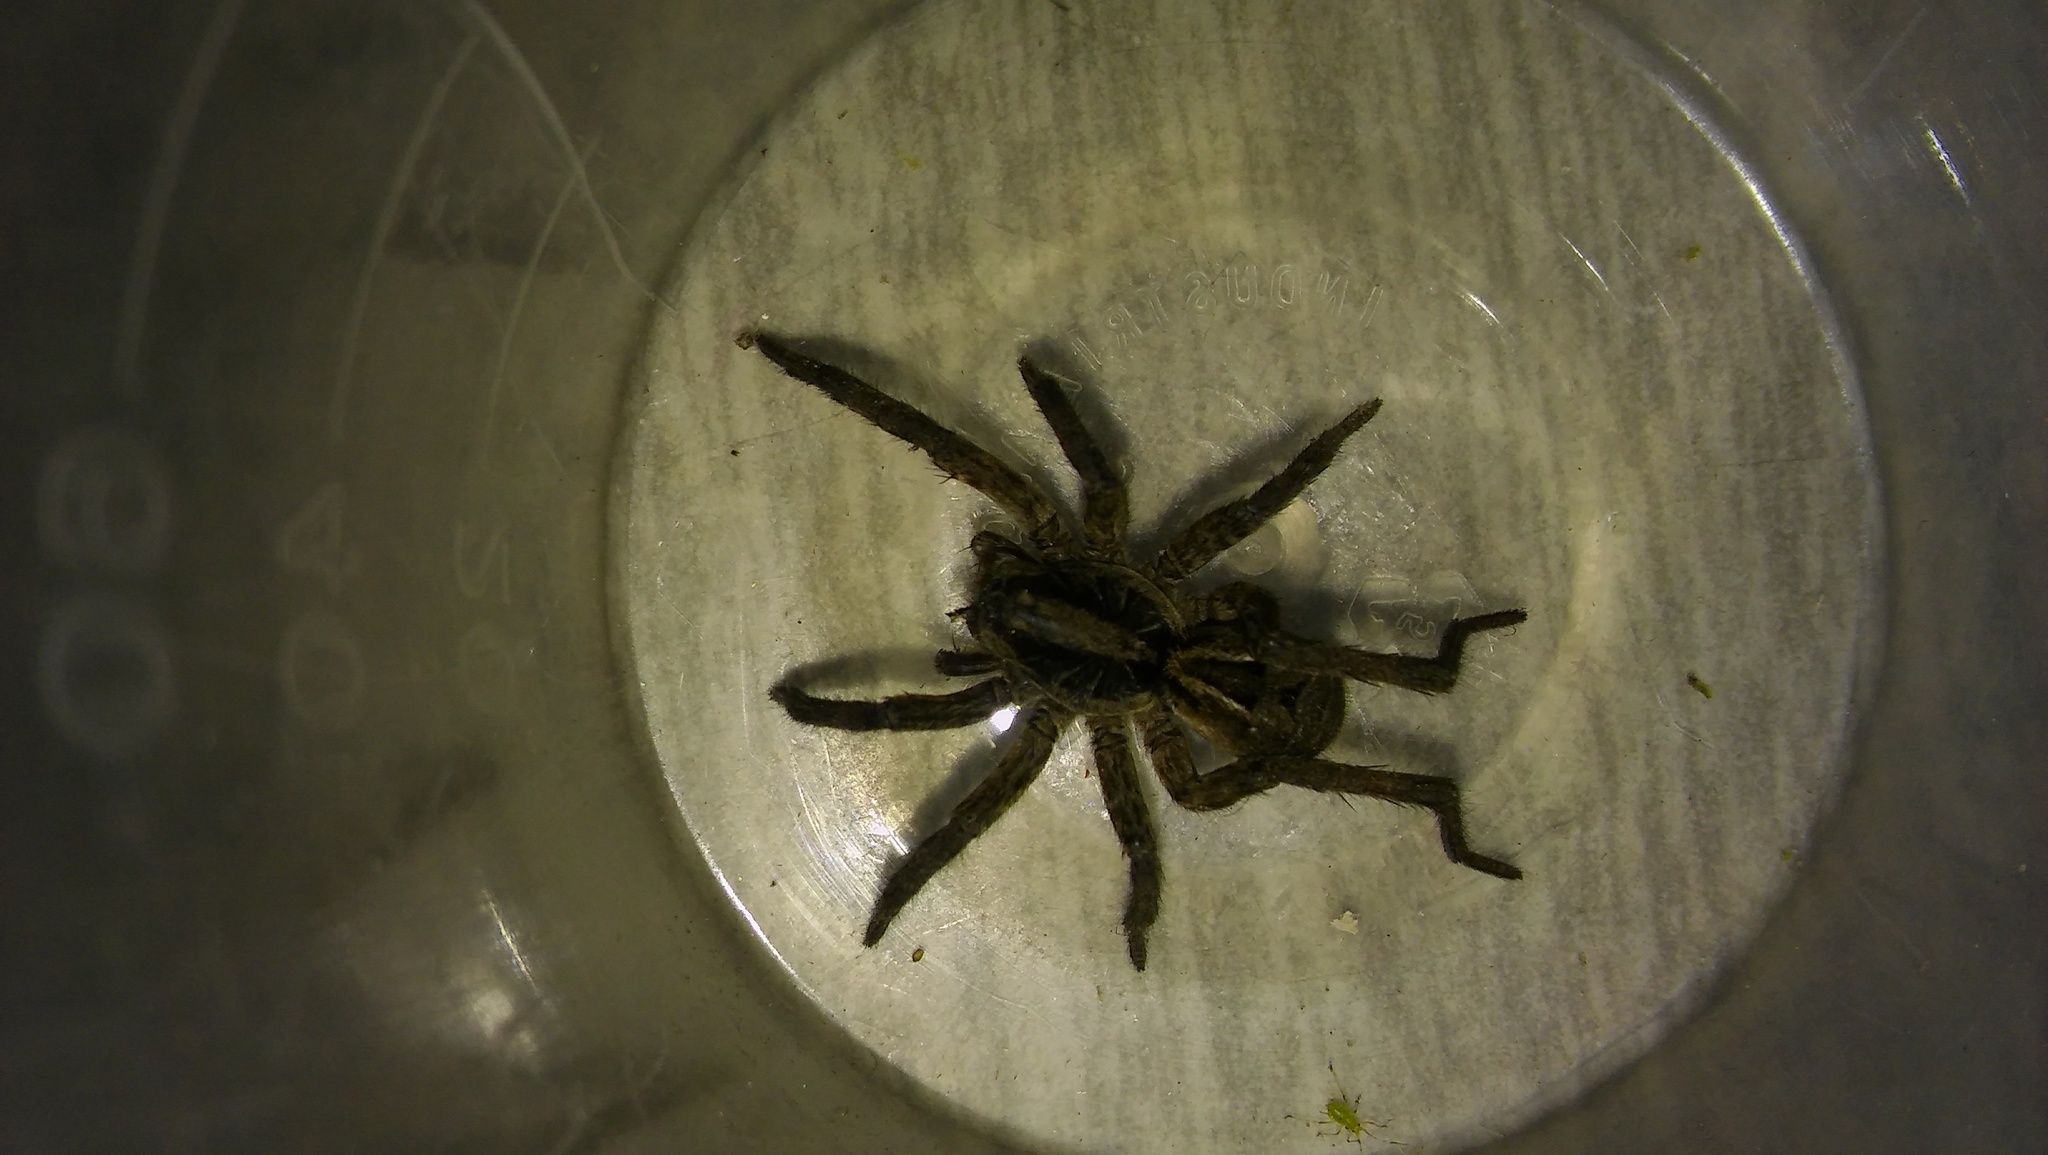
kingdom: Animalia
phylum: Arthropoda
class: Arachnida
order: Araneae
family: Lycosidae
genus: Lycosa
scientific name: Lycosa erythrognatha
